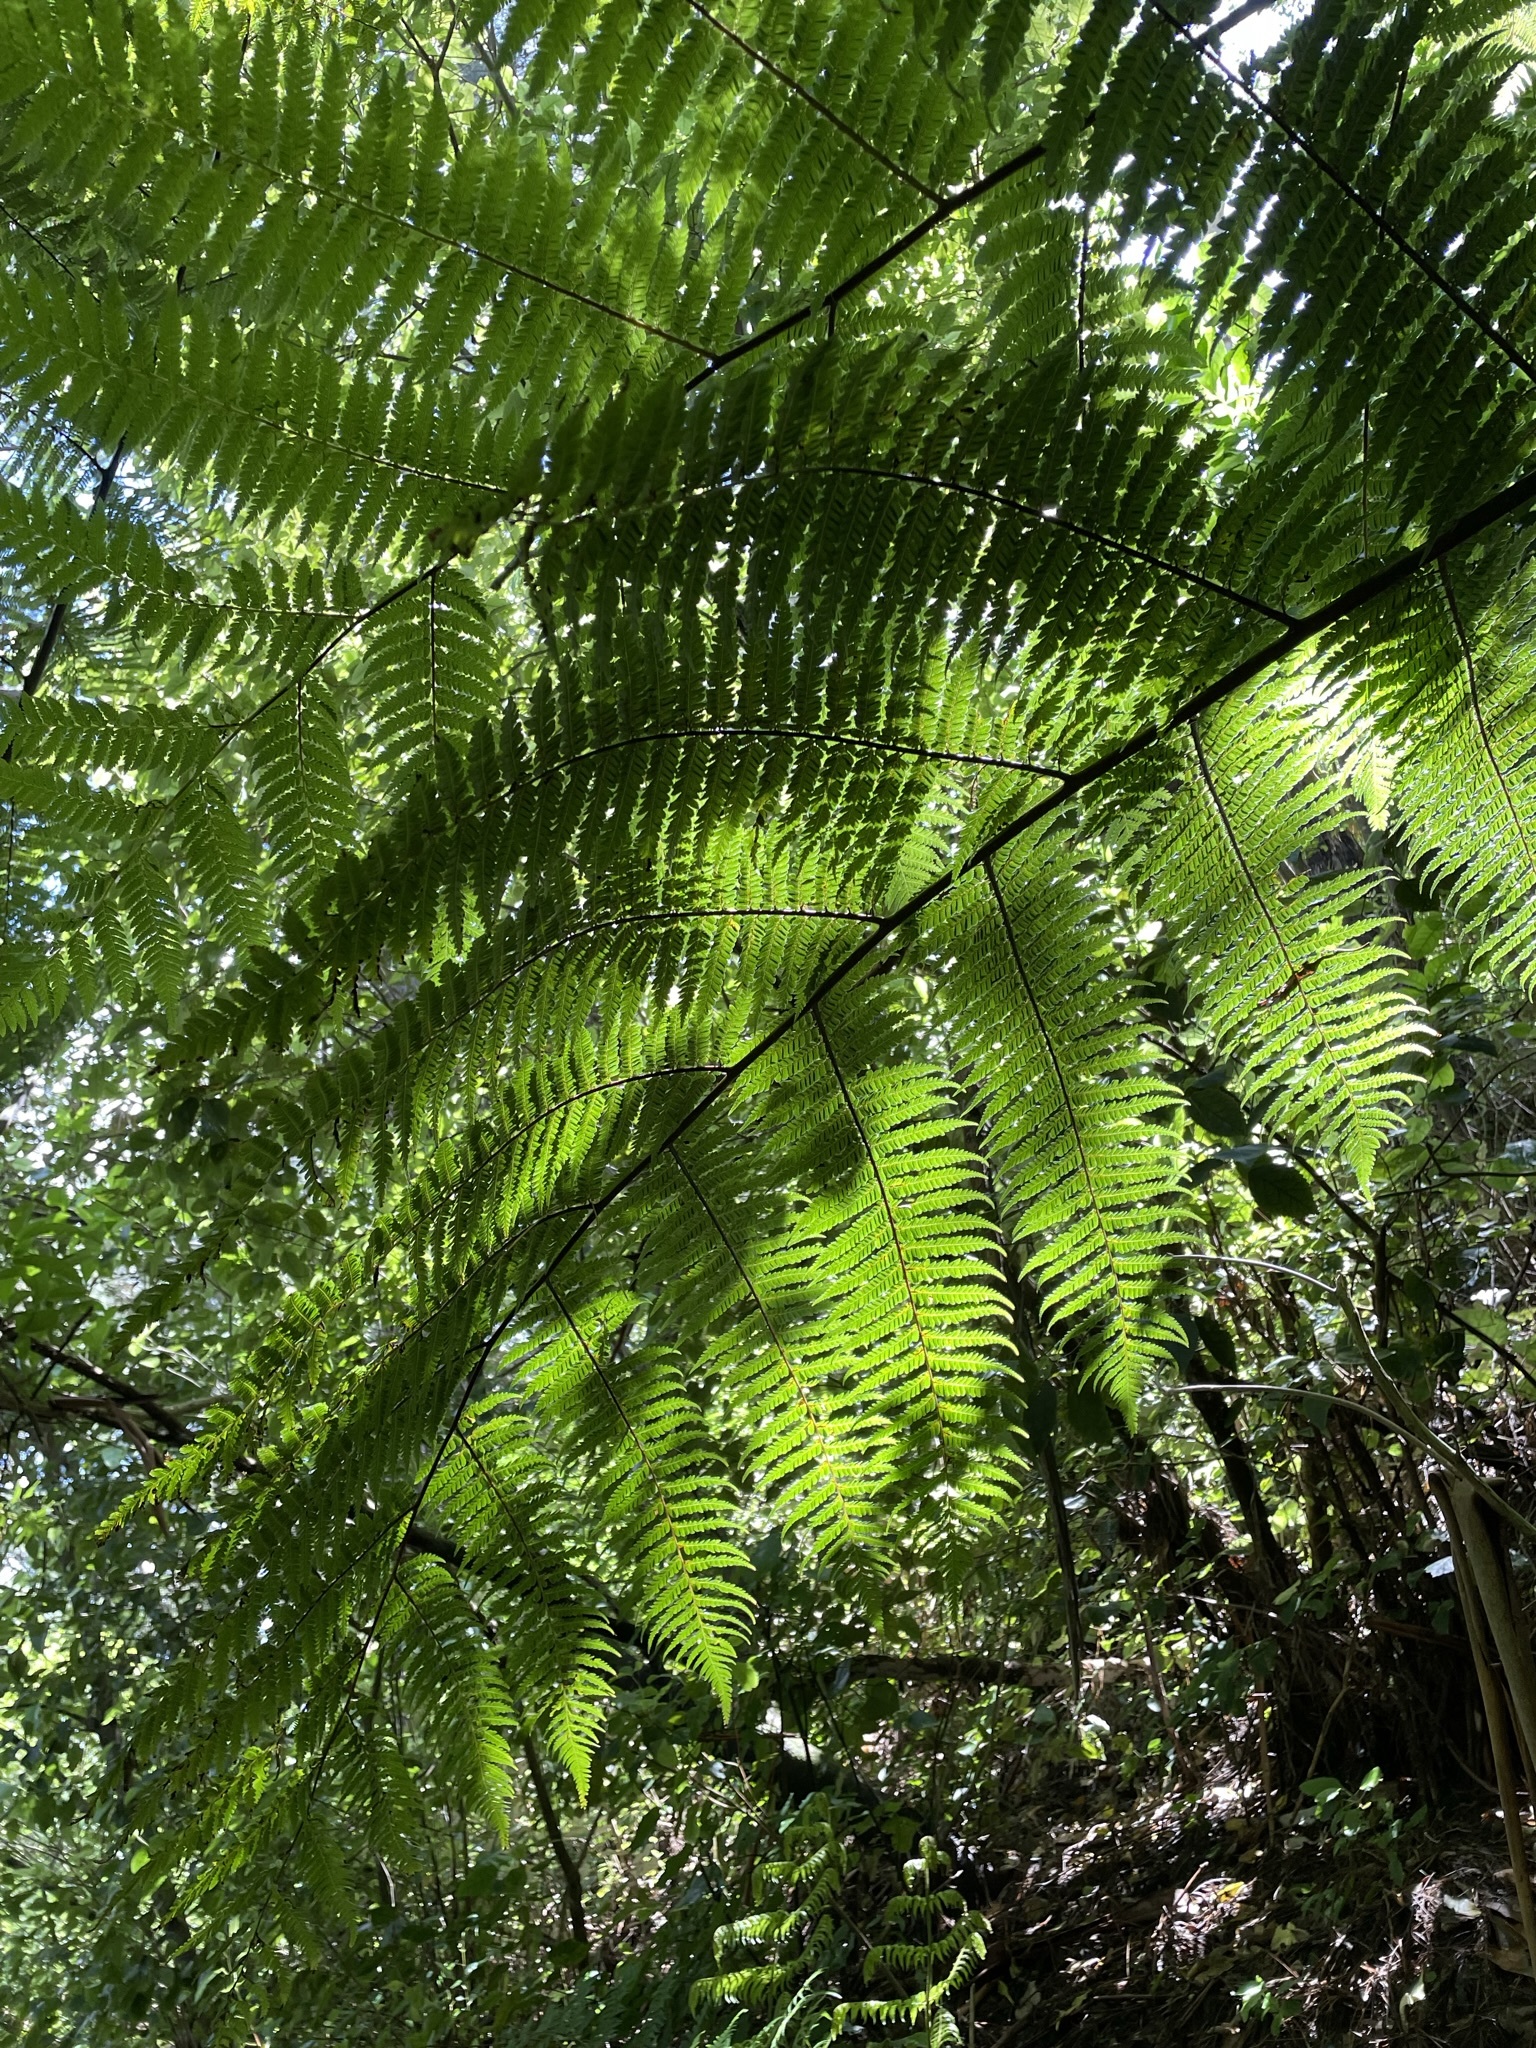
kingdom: Plantae
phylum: Tracheophyta
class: Polypodiopsida
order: Cyatheales
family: Cyatheaceae
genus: Sphaeropteris
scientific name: Sphaeropteris medullaris
